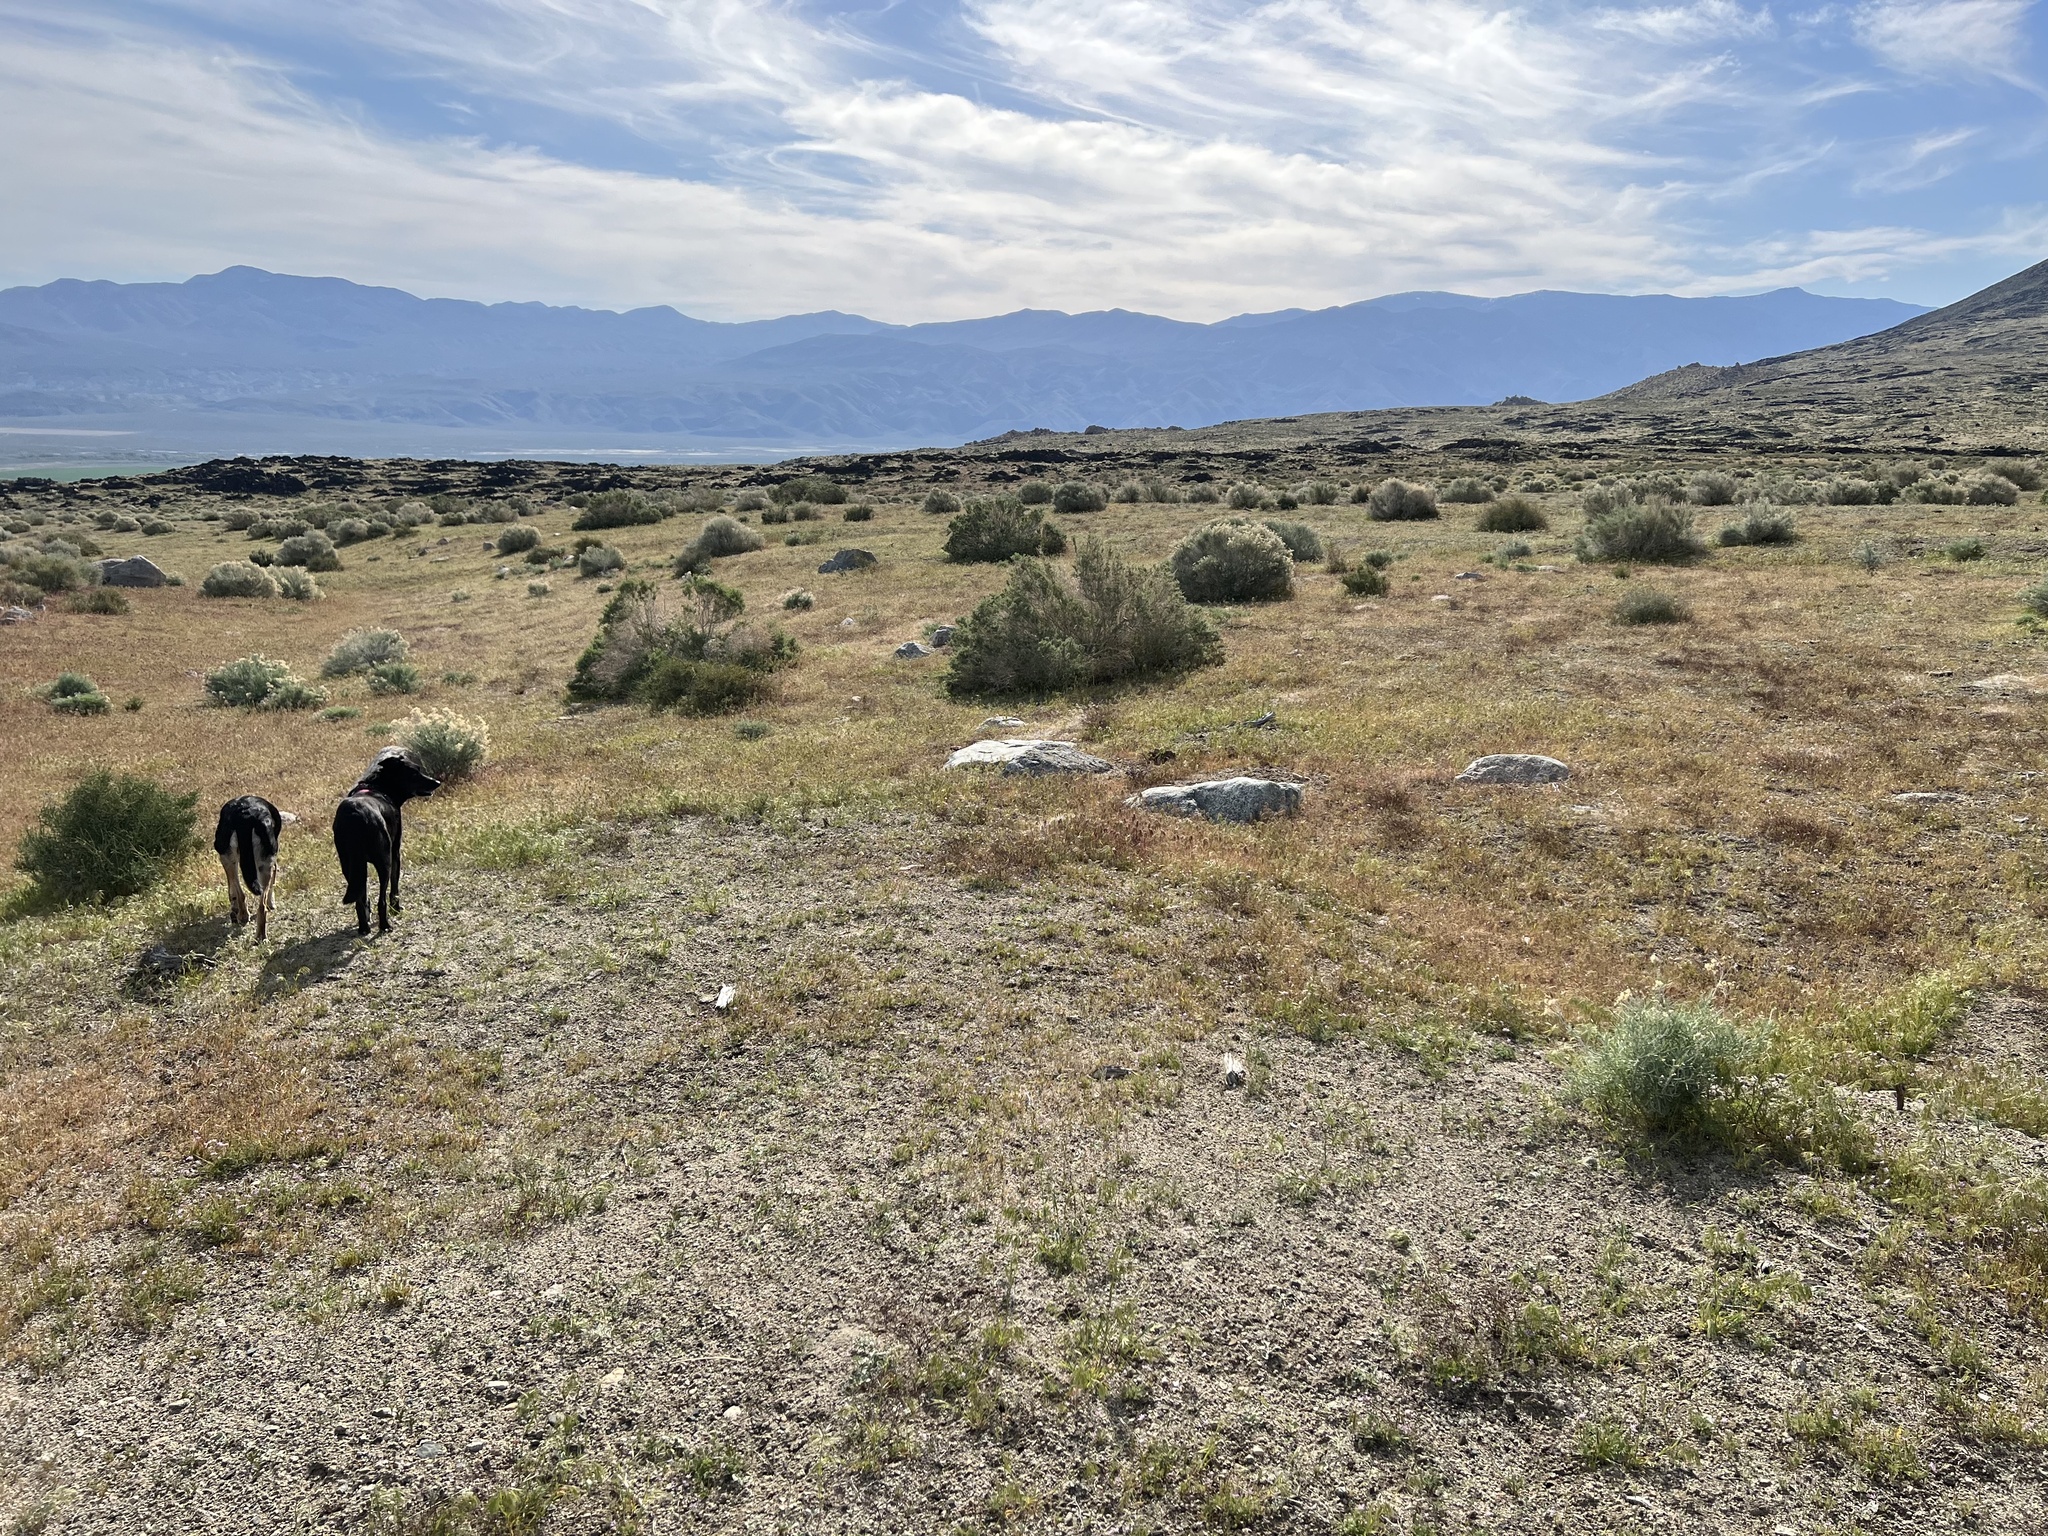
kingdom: Plantae
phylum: Tracheophyta
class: Liliopsida
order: Poales
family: Poaceae
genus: Bromus
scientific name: Bromus tectorum
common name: Cheatgrass
